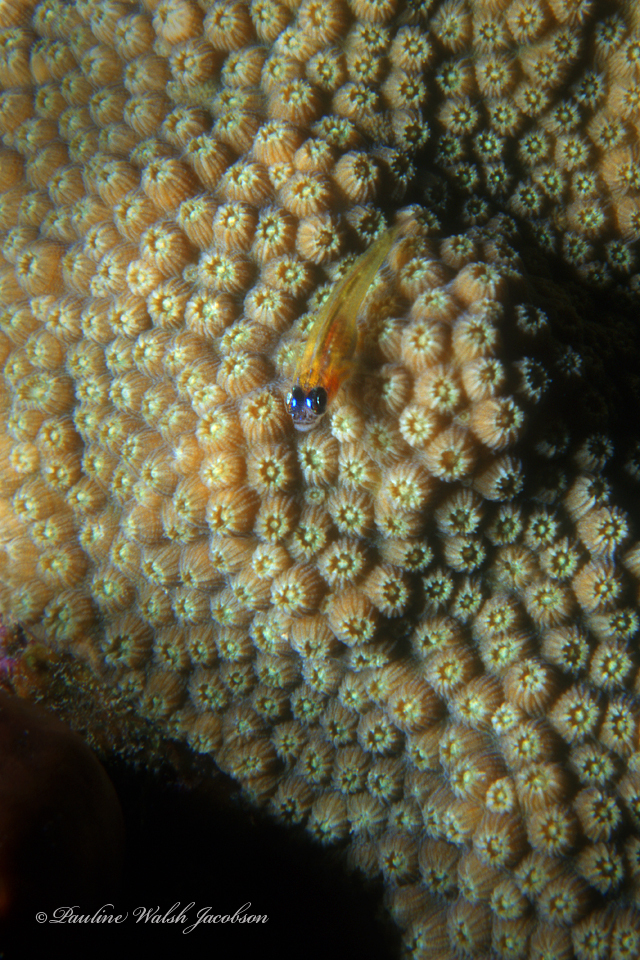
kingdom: Animalia
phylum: Chordata
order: Perciformes
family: Gobiidae
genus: Coryphopterus
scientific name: Coryphopterus lipernes
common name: Peppermint goby
